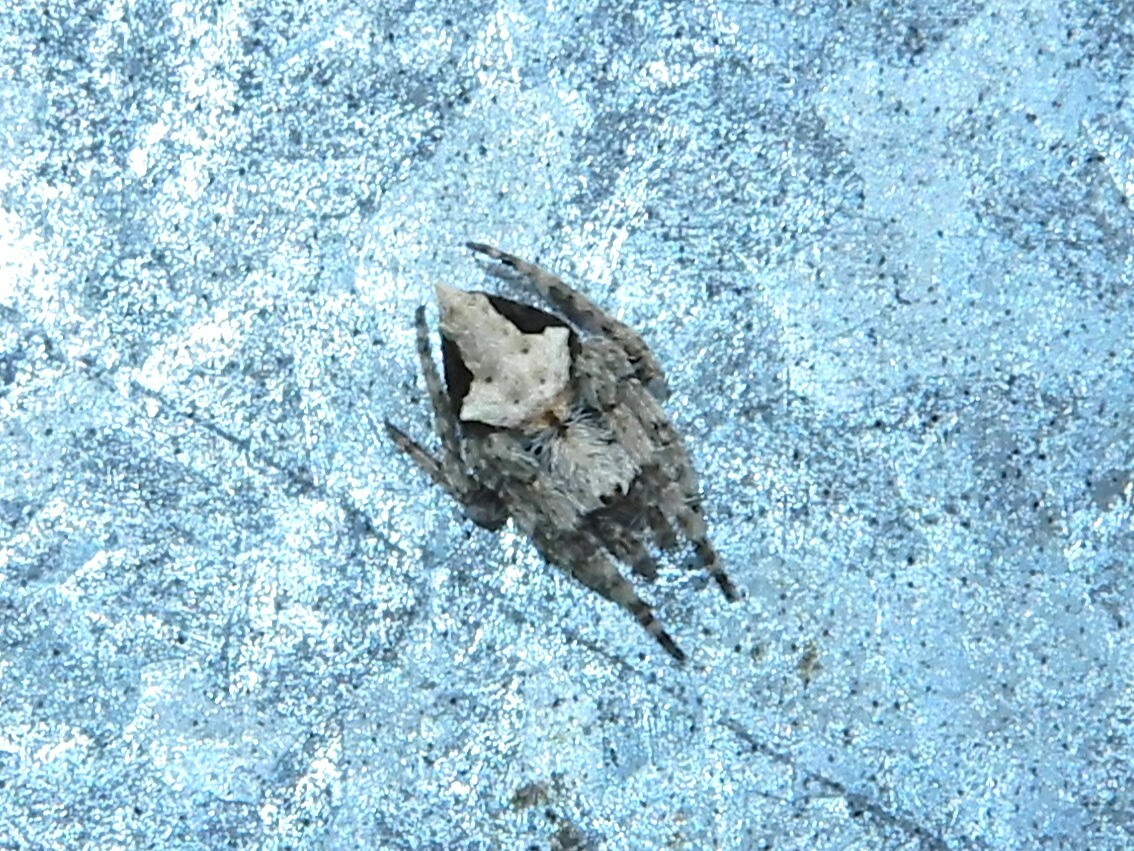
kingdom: Animalia
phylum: Arthropoda
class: Arachnida
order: Araneae
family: Araneidae
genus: Eriophora
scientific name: Eriophora pustulosa
